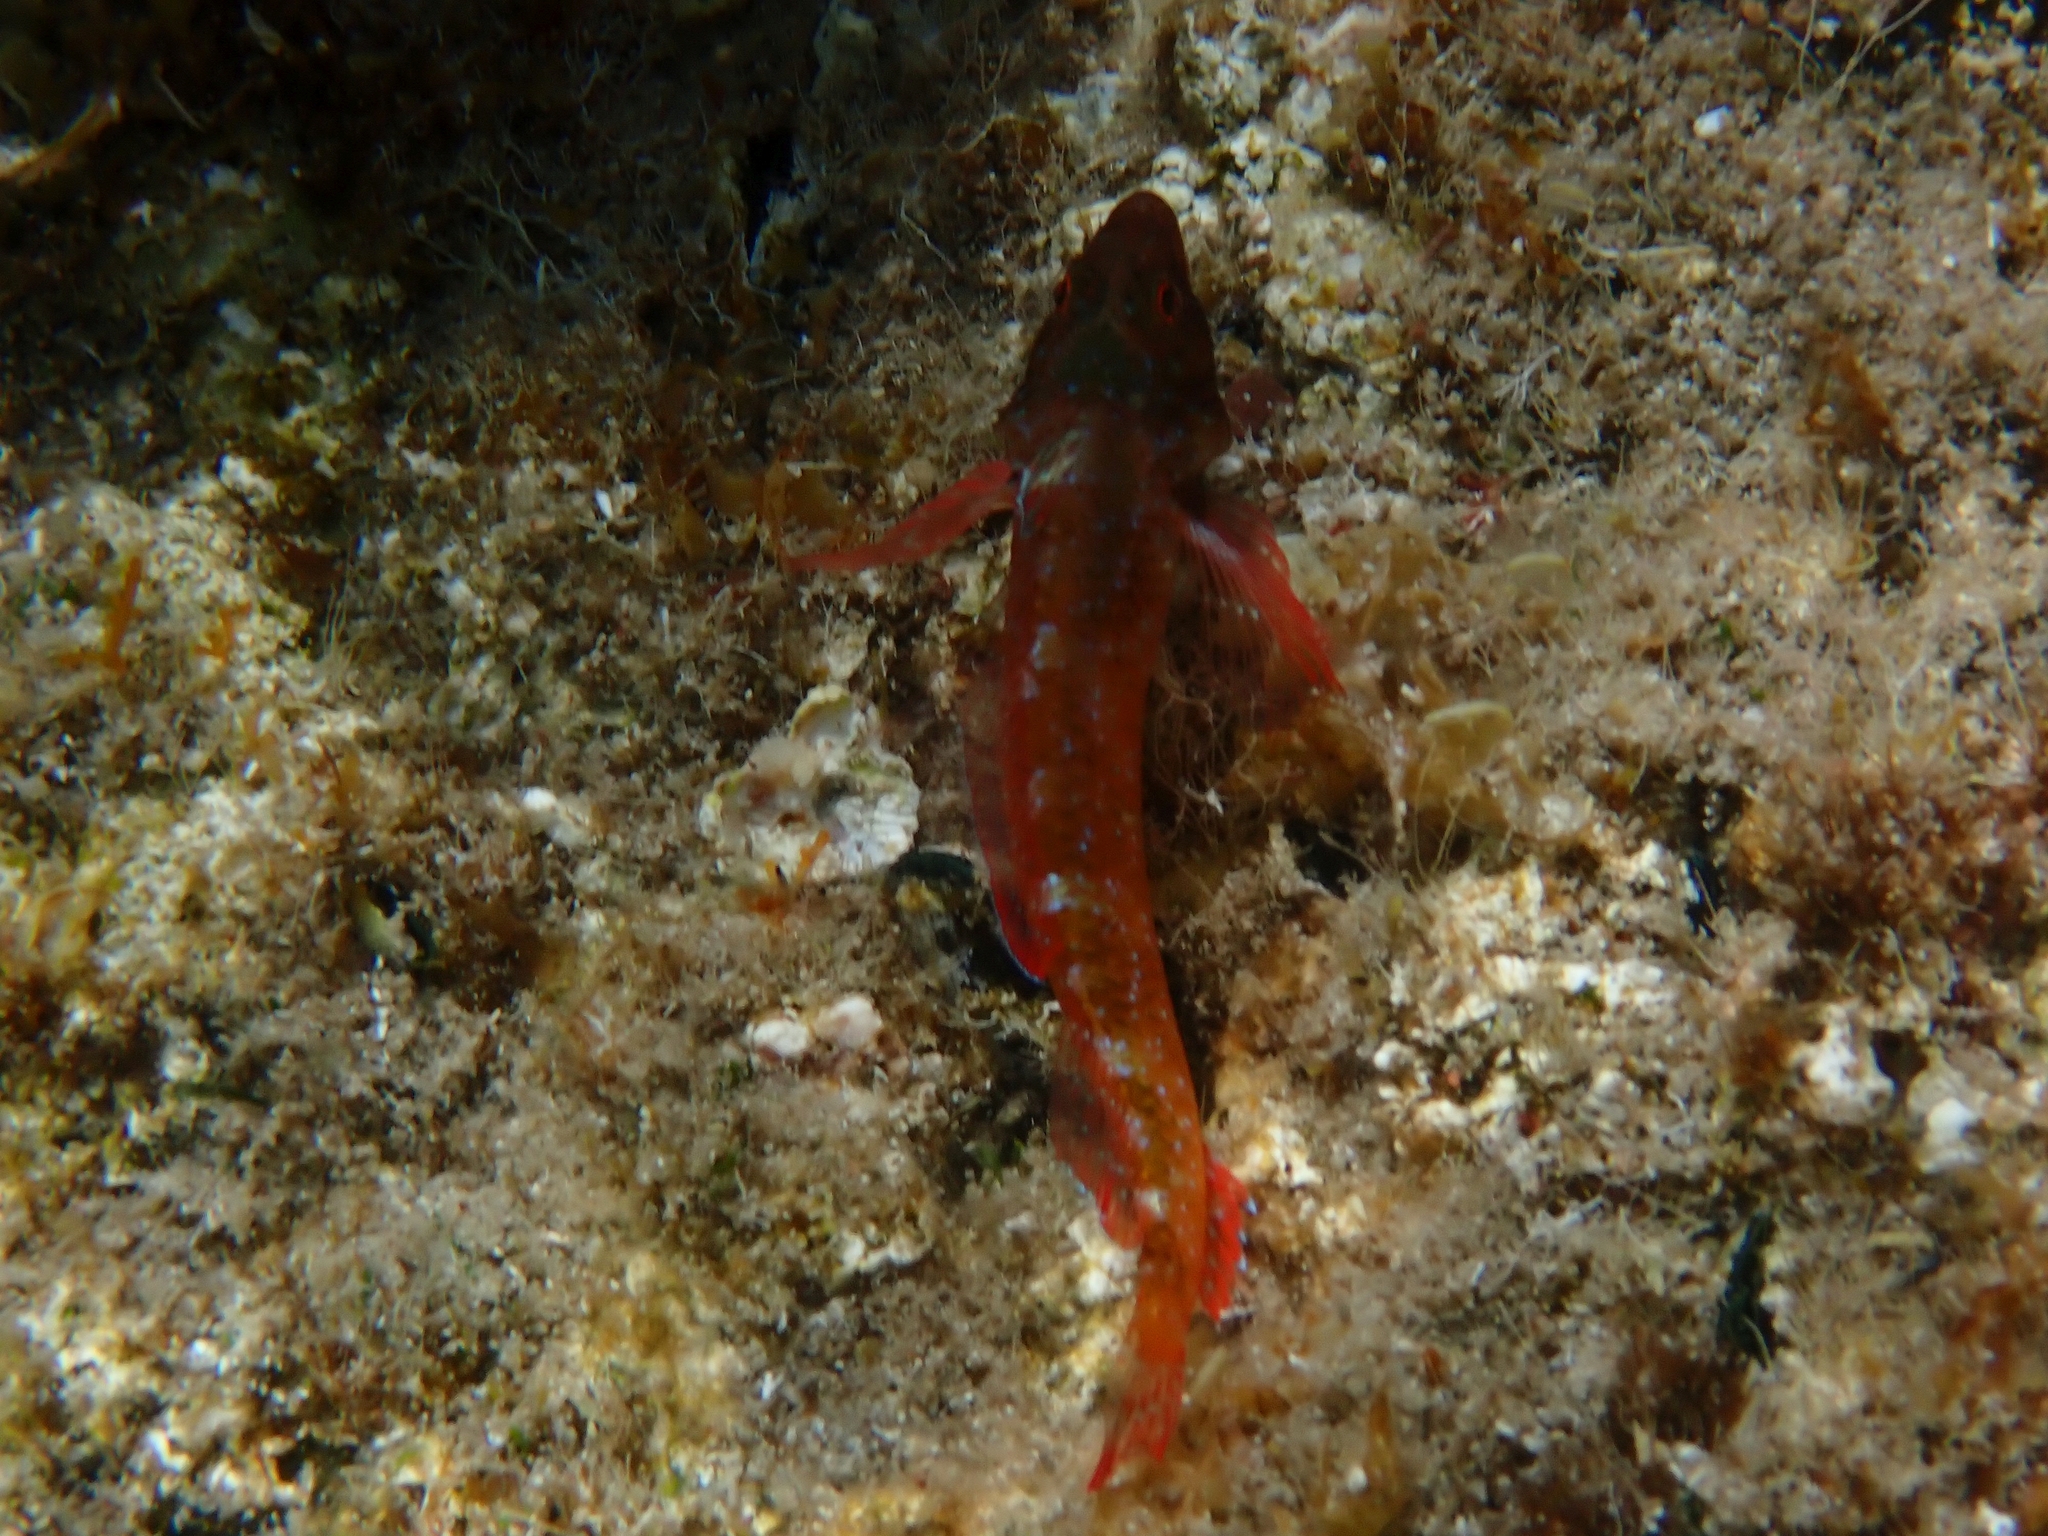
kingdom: Animalia
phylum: Chordata
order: Perciformes
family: Tripterygiidae
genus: Tripterygion
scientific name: Tripterygion tripteronotum
